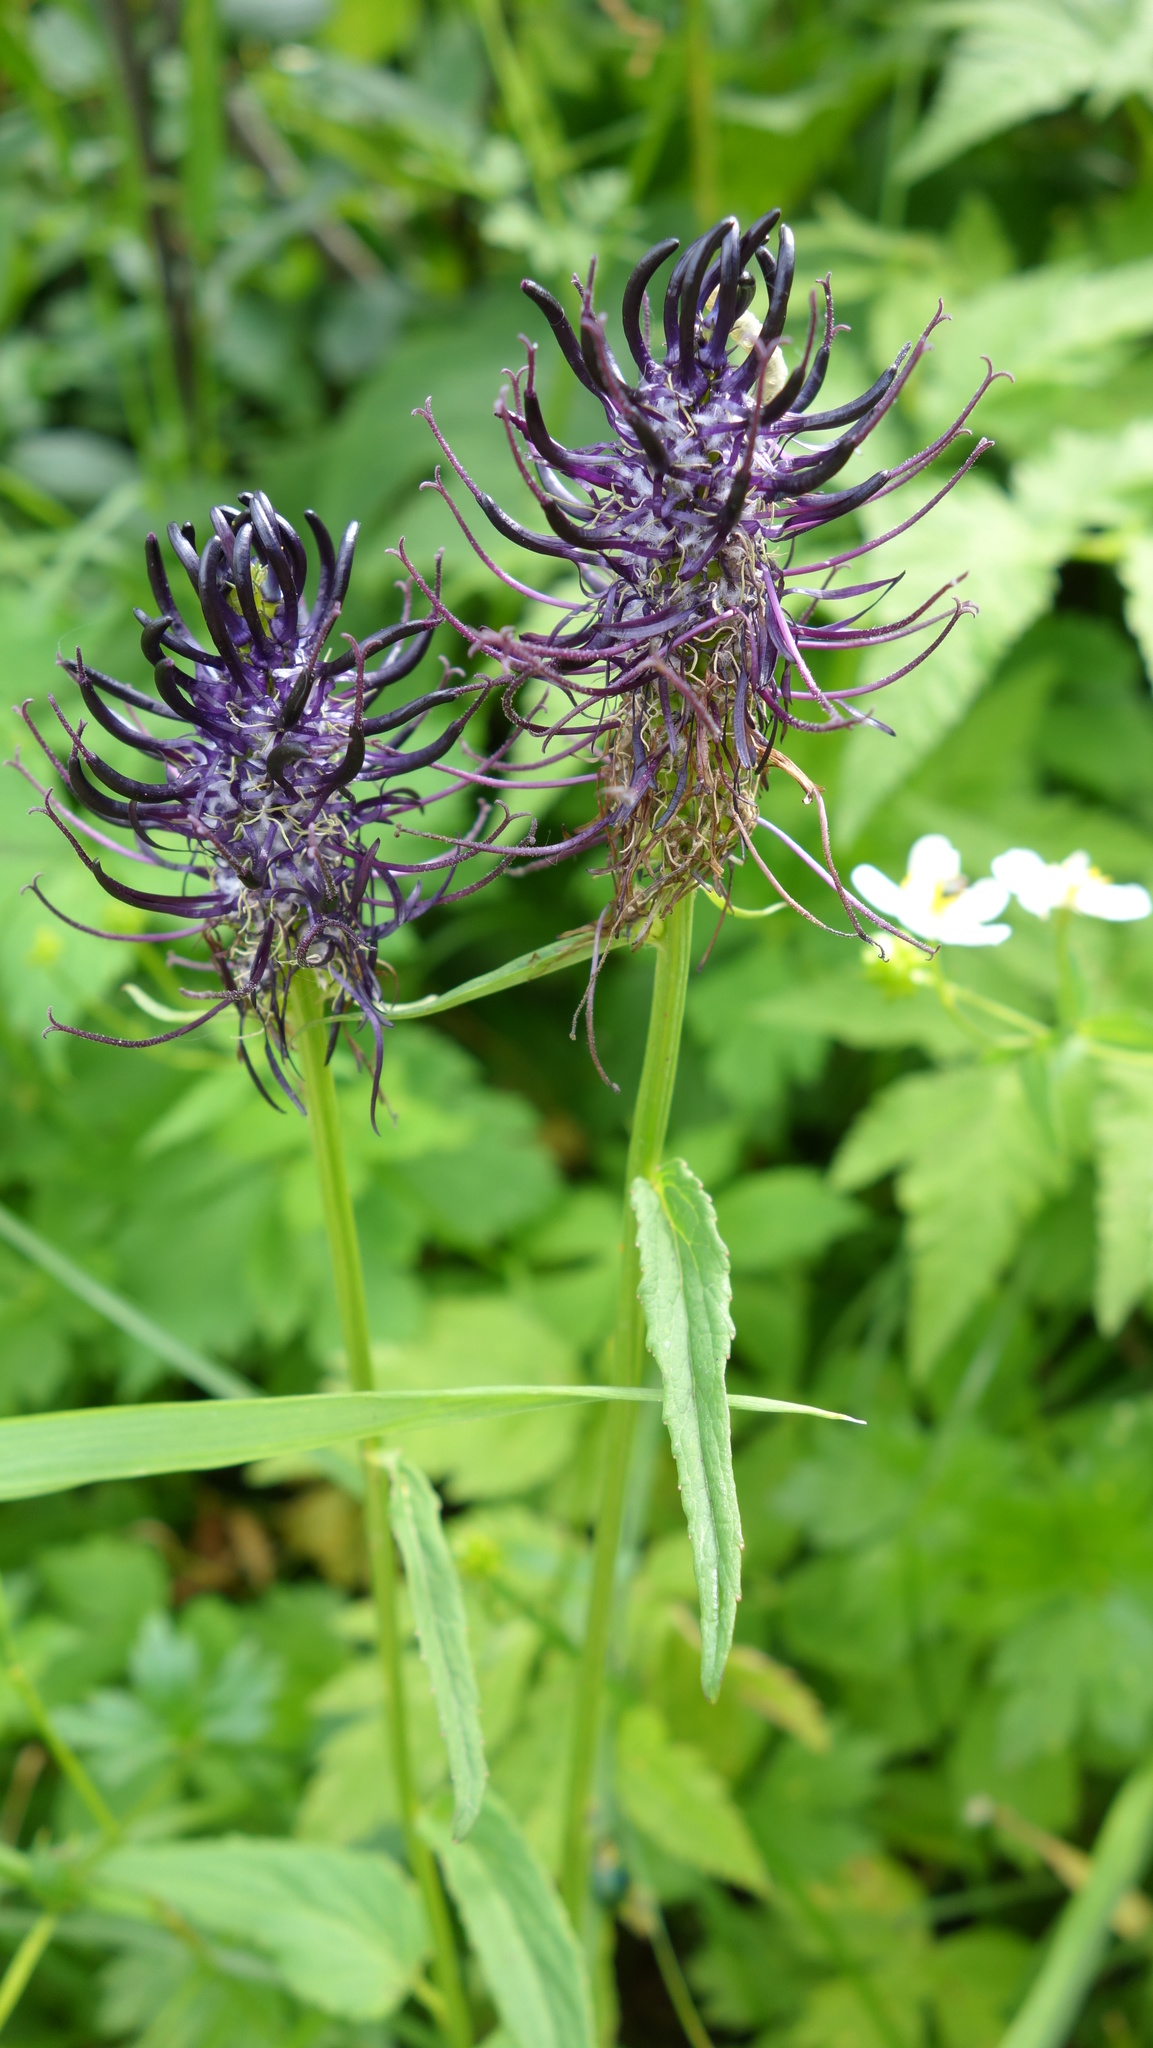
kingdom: Plantae
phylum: Tracheophyta
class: Magnoliopsida
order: Asterales
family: Campanulaceae
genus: Phyteuma
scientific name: Phyteuma ovatum
